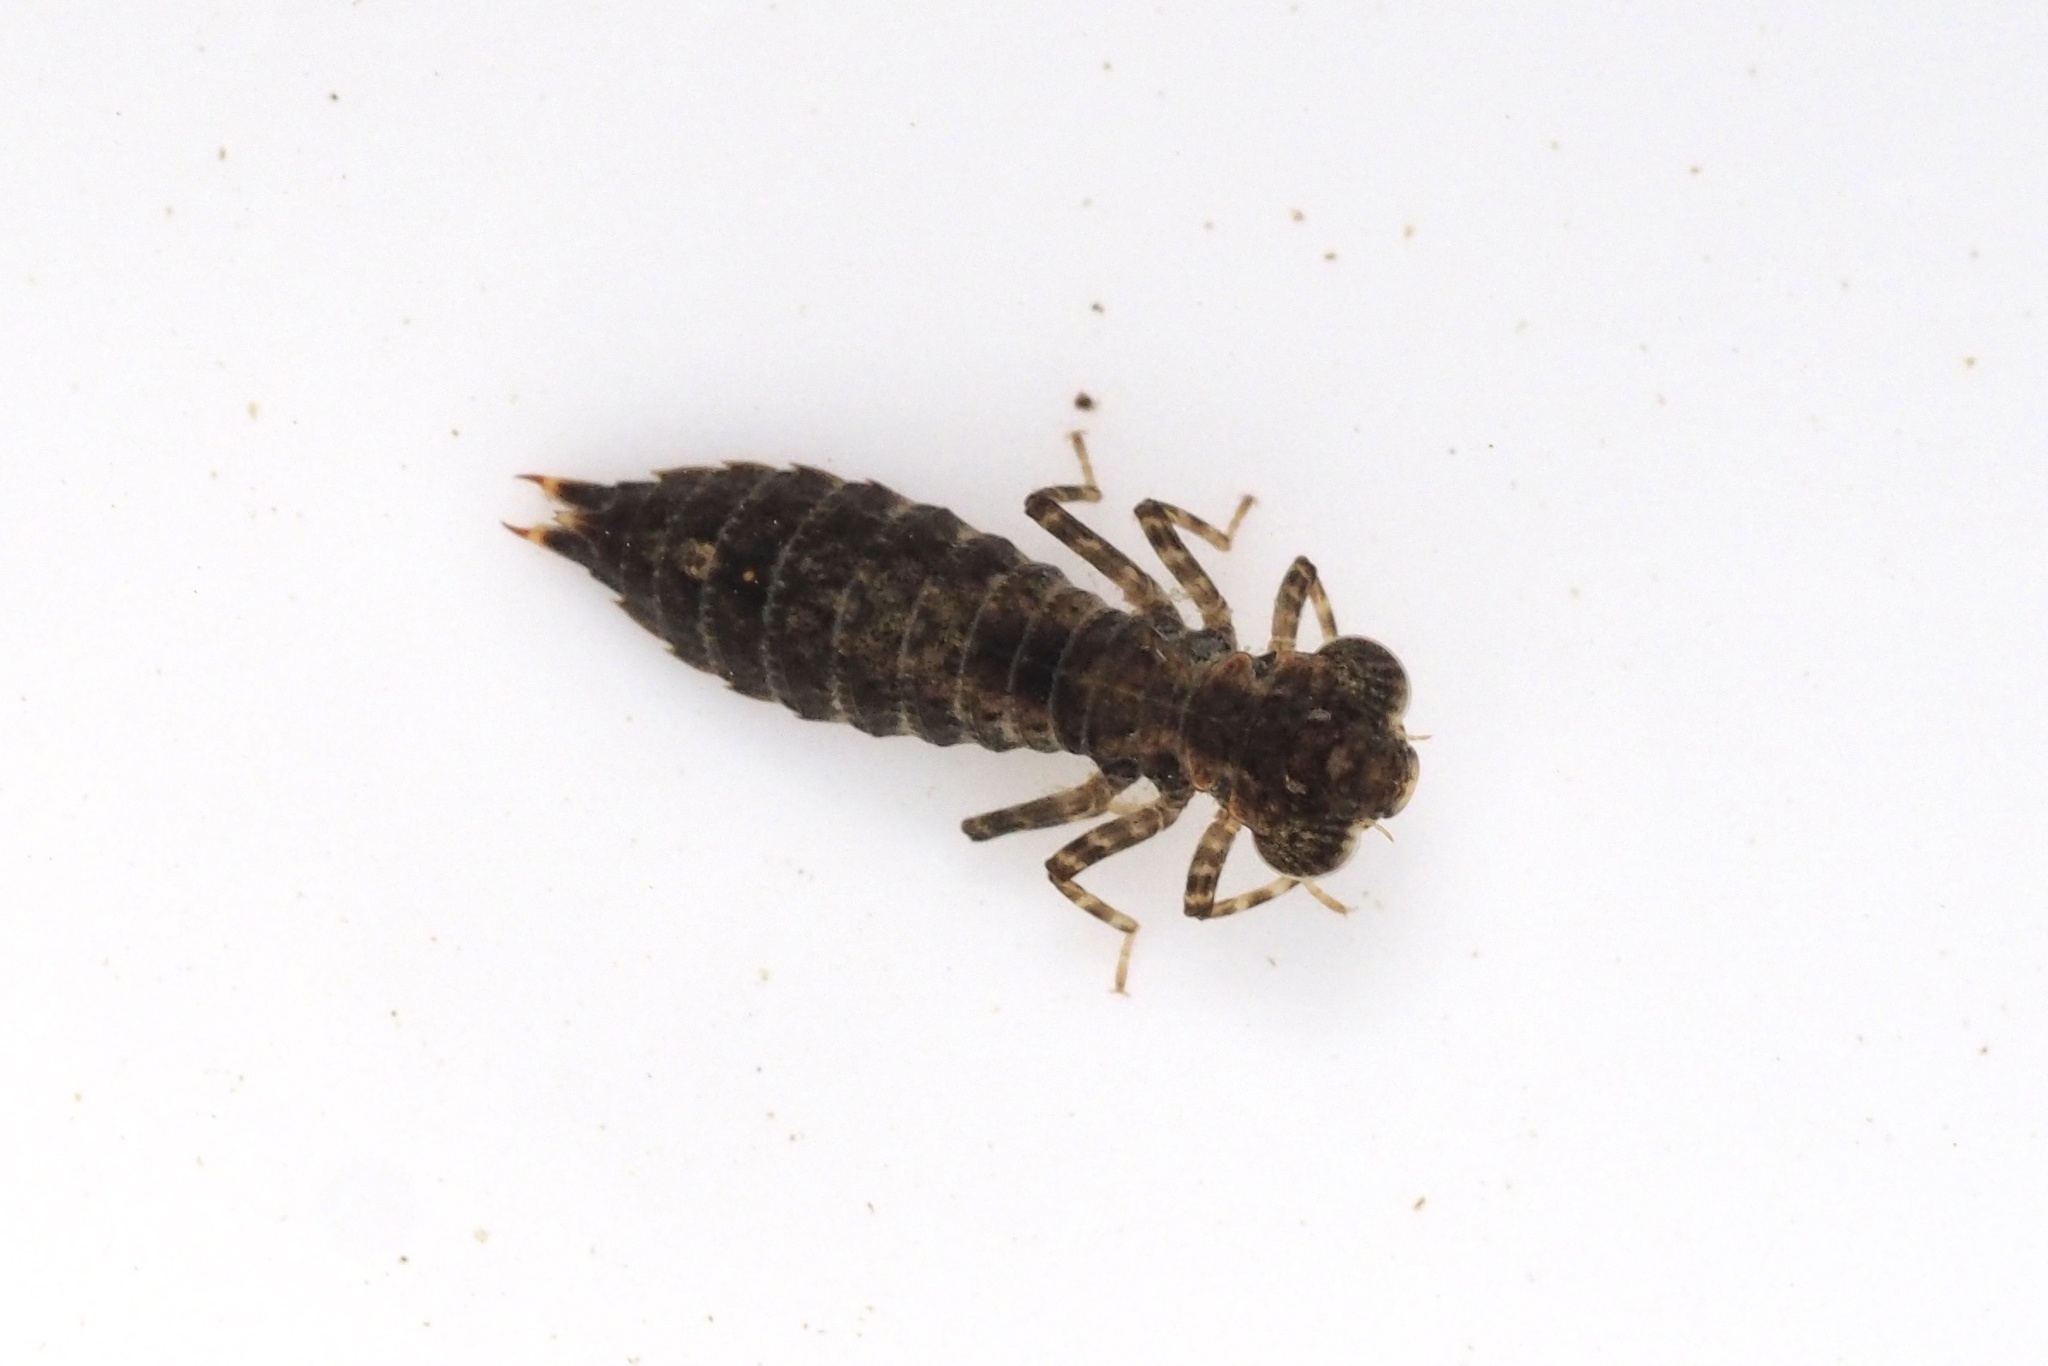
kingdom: Animalia
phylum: Arthropoda
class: Insecta
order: Odonata
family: Aeshnidae
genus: Aeschnophlebia
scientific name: Aeschnophlebia
